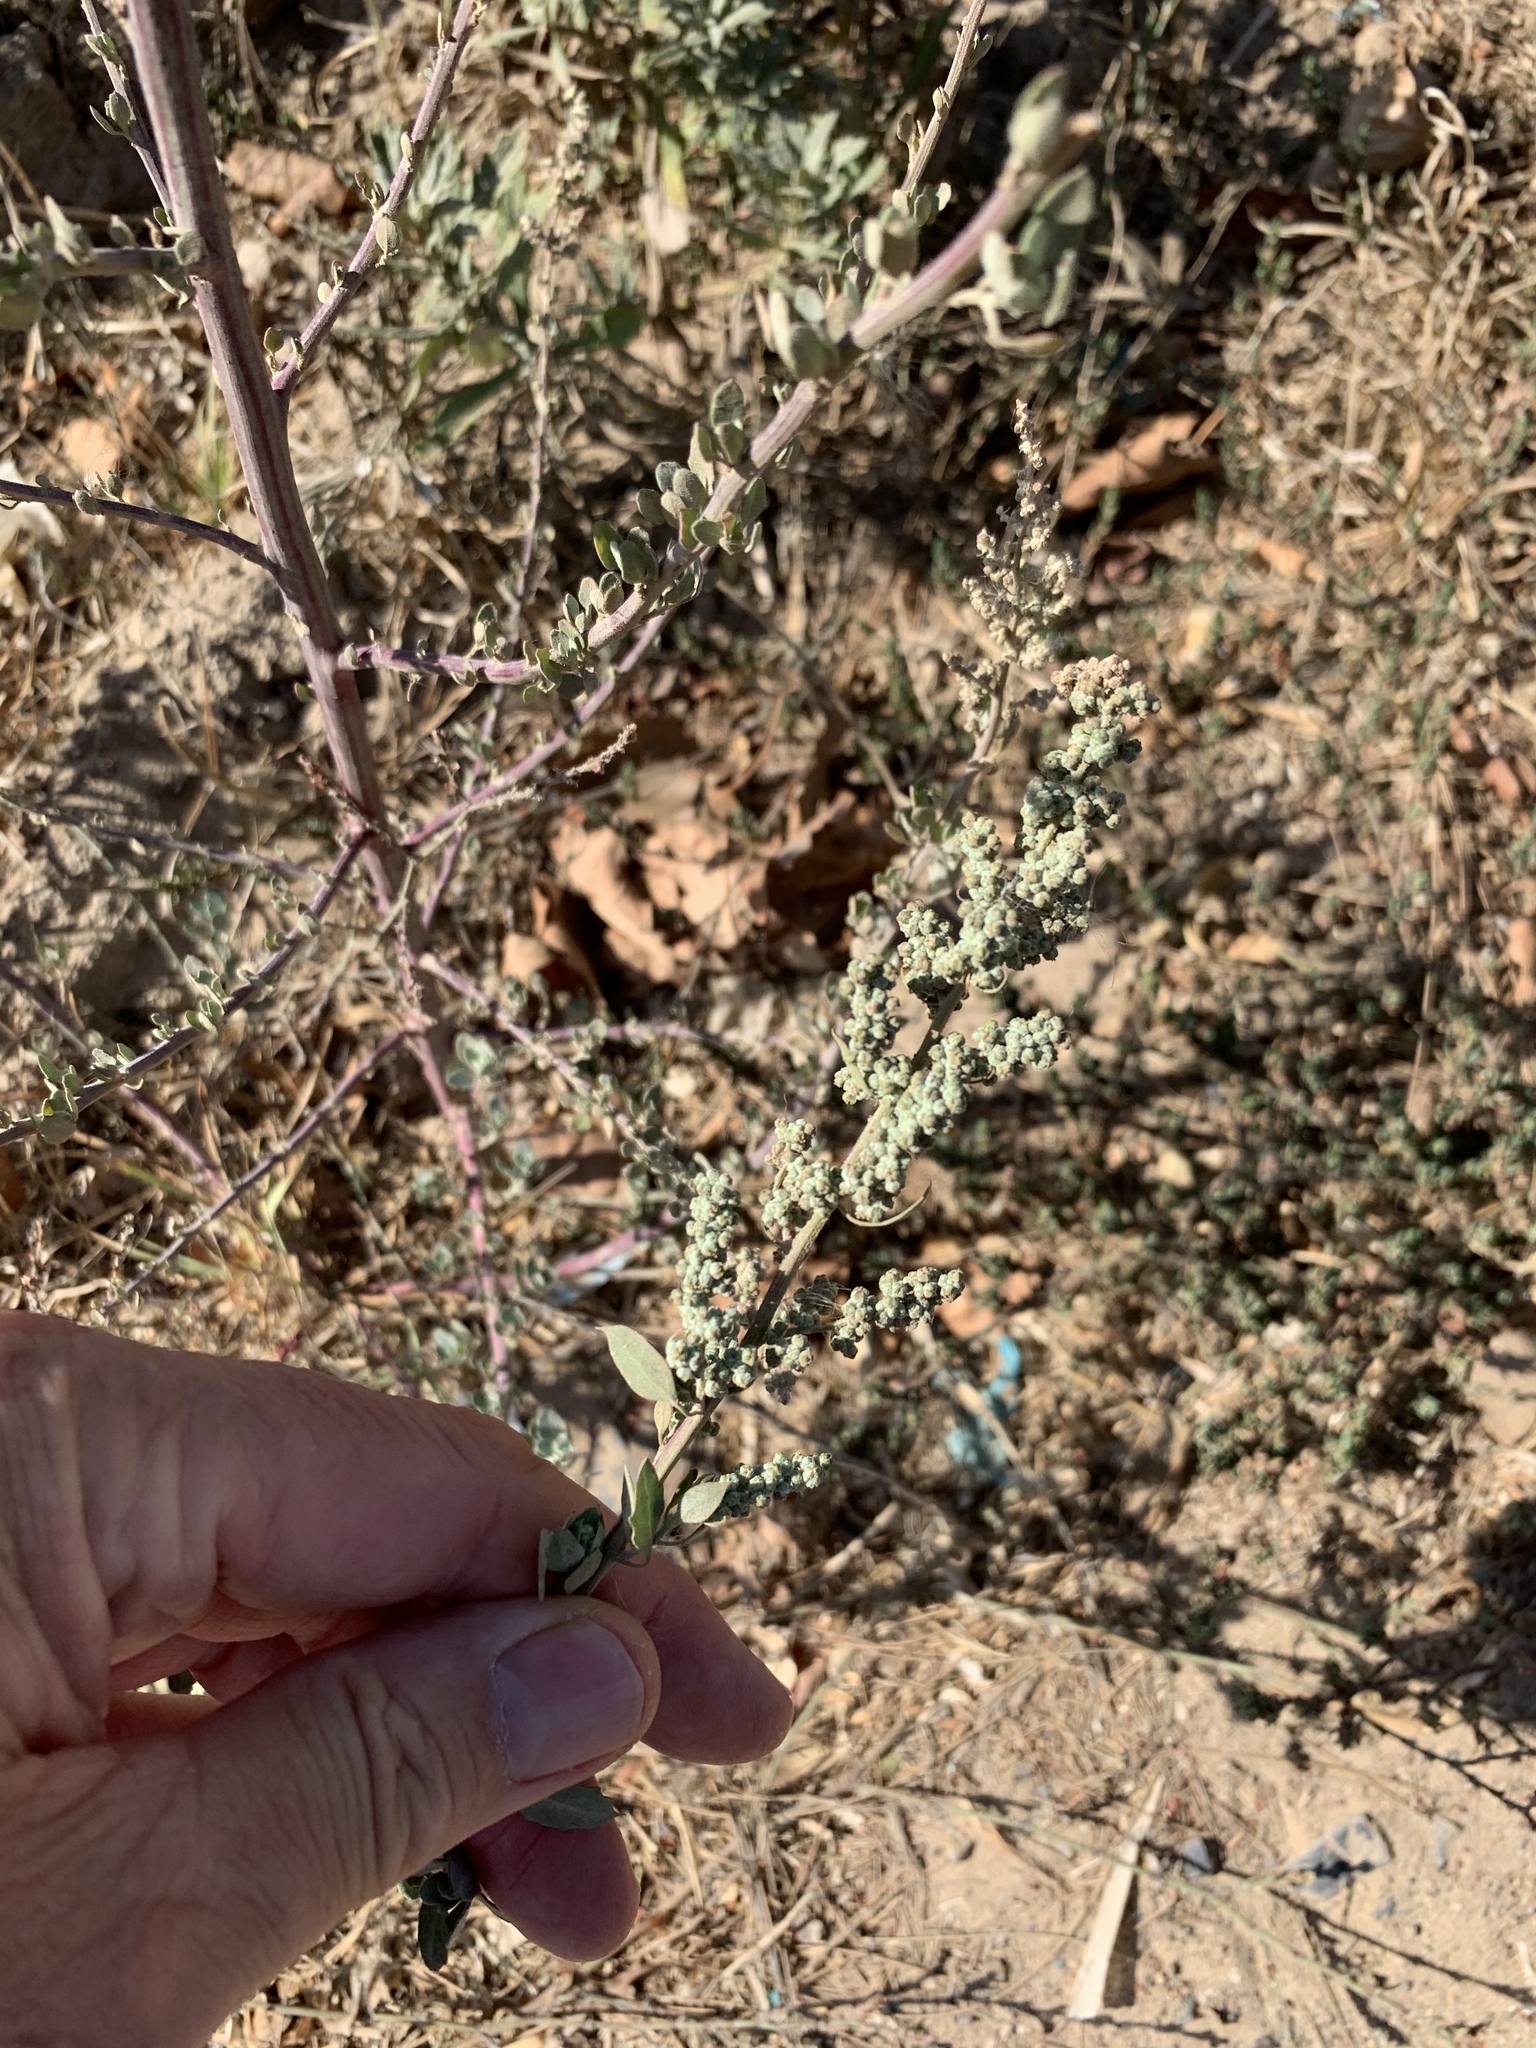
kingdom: Plantae
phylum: Tracheophyta
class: Magnoliopsida
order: Caryophyllales
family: Amaranthaceae
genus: Chenopodium
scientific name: Chenopodium album
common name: Fat-hen
